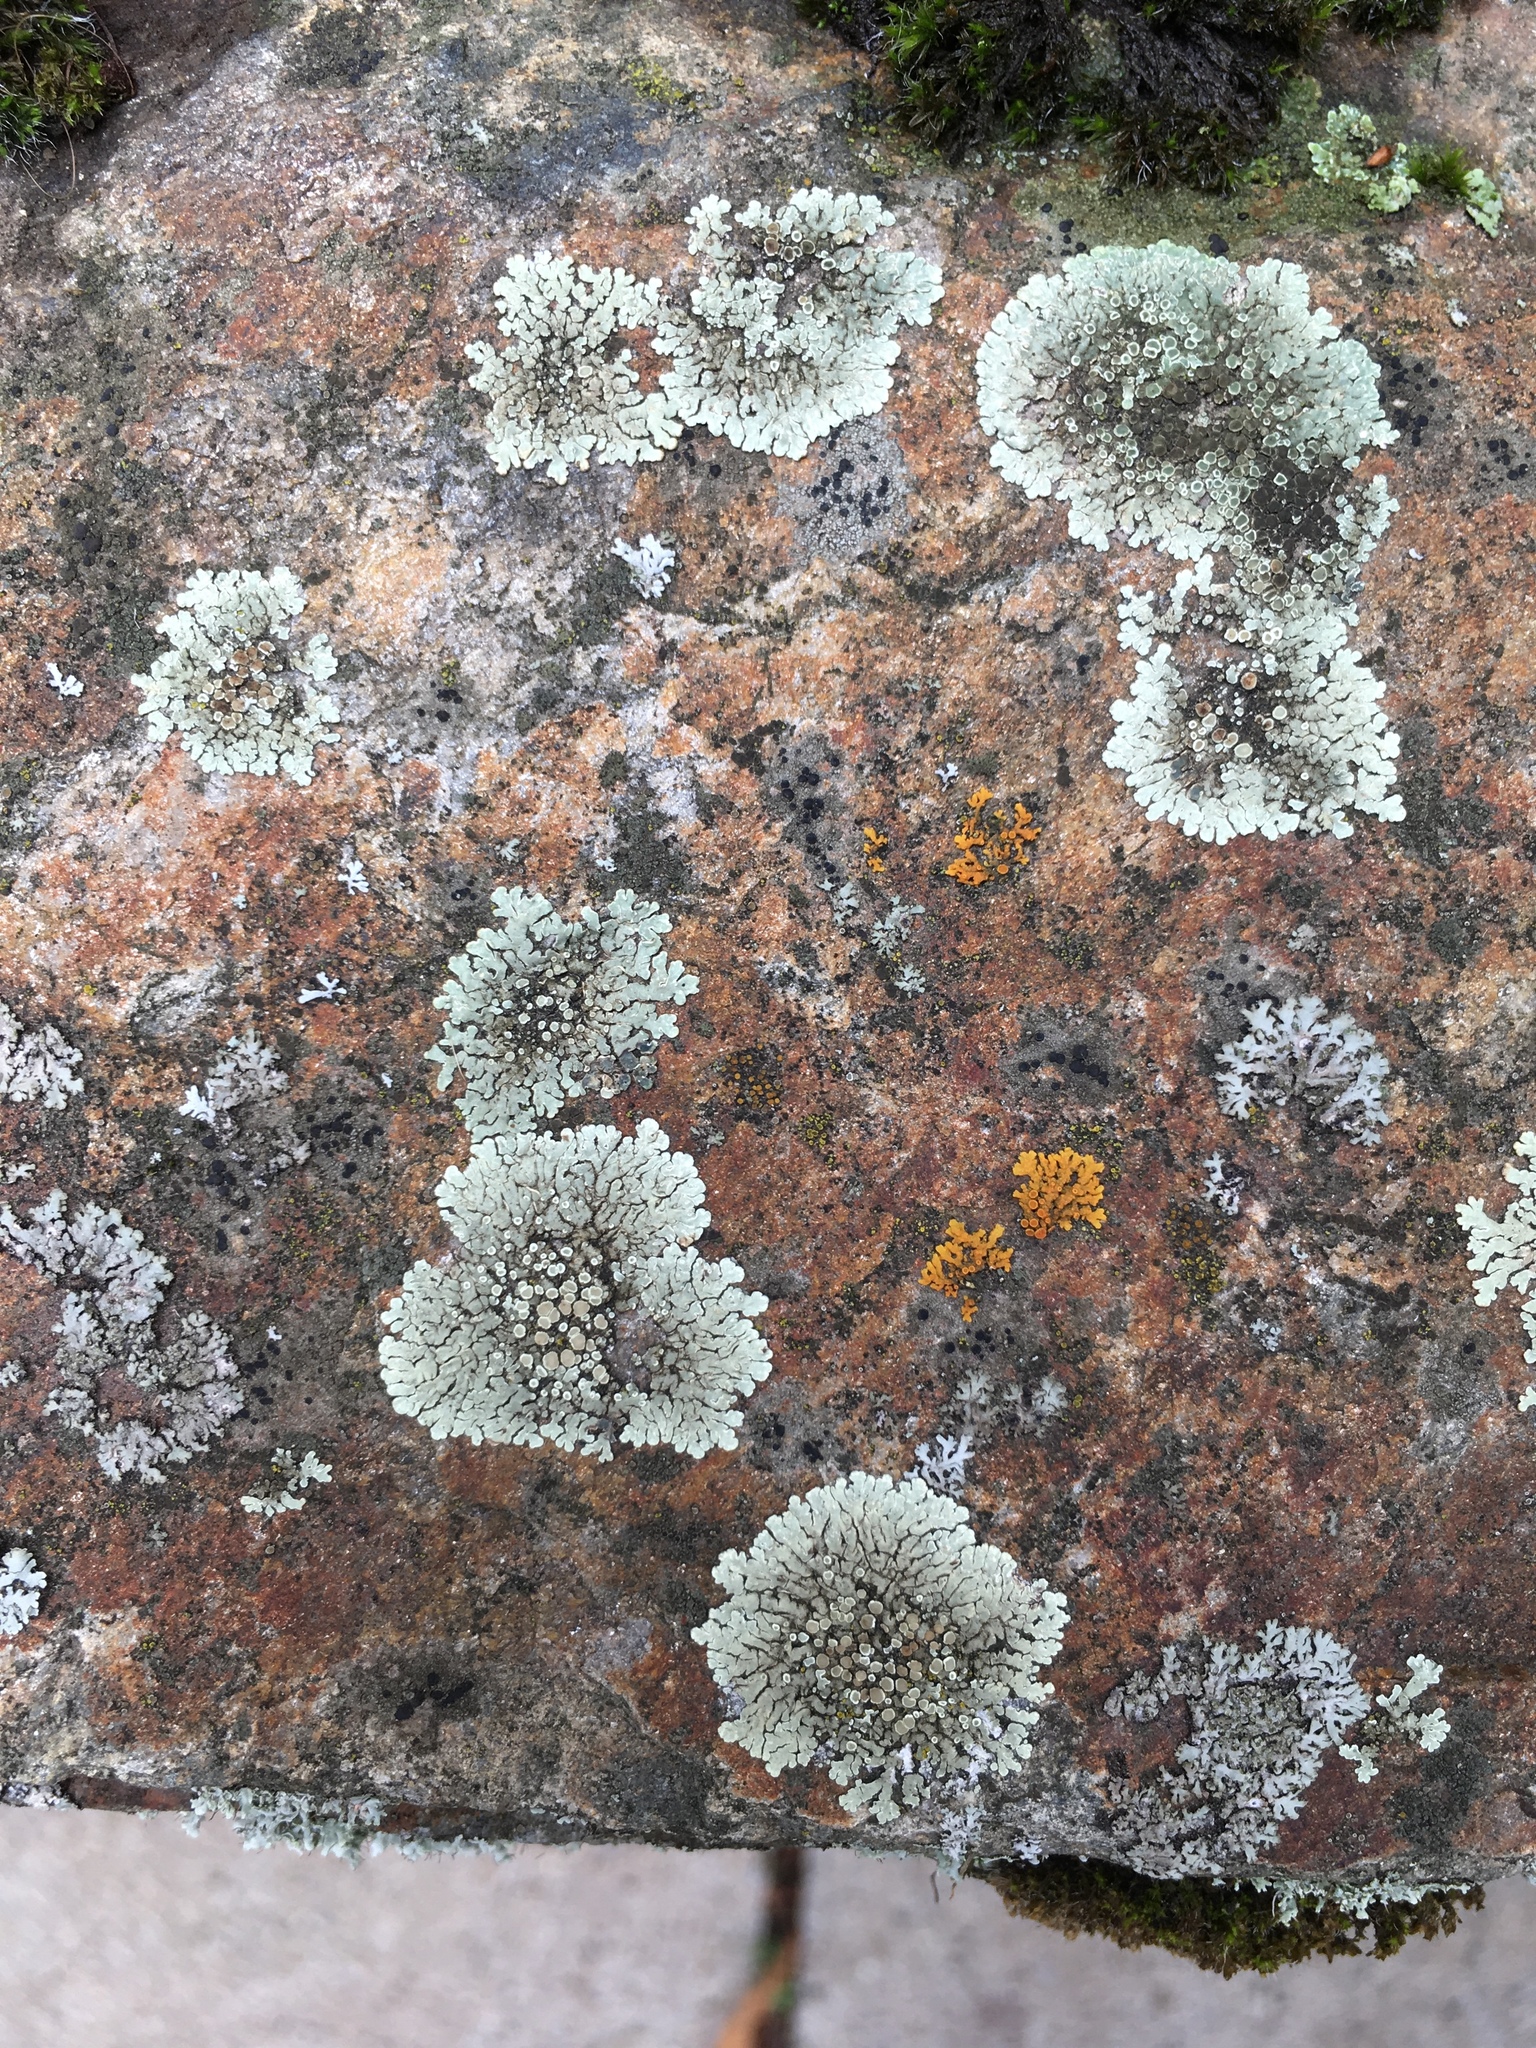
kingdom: Fungi
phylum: Ascomycota
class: Lecanoromycetes
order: Lecanorales
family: Lecanoraceae
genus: Protoparmeliopsis
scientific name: Protoparmeliopsis muralis
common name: Stonewall rim lichen
